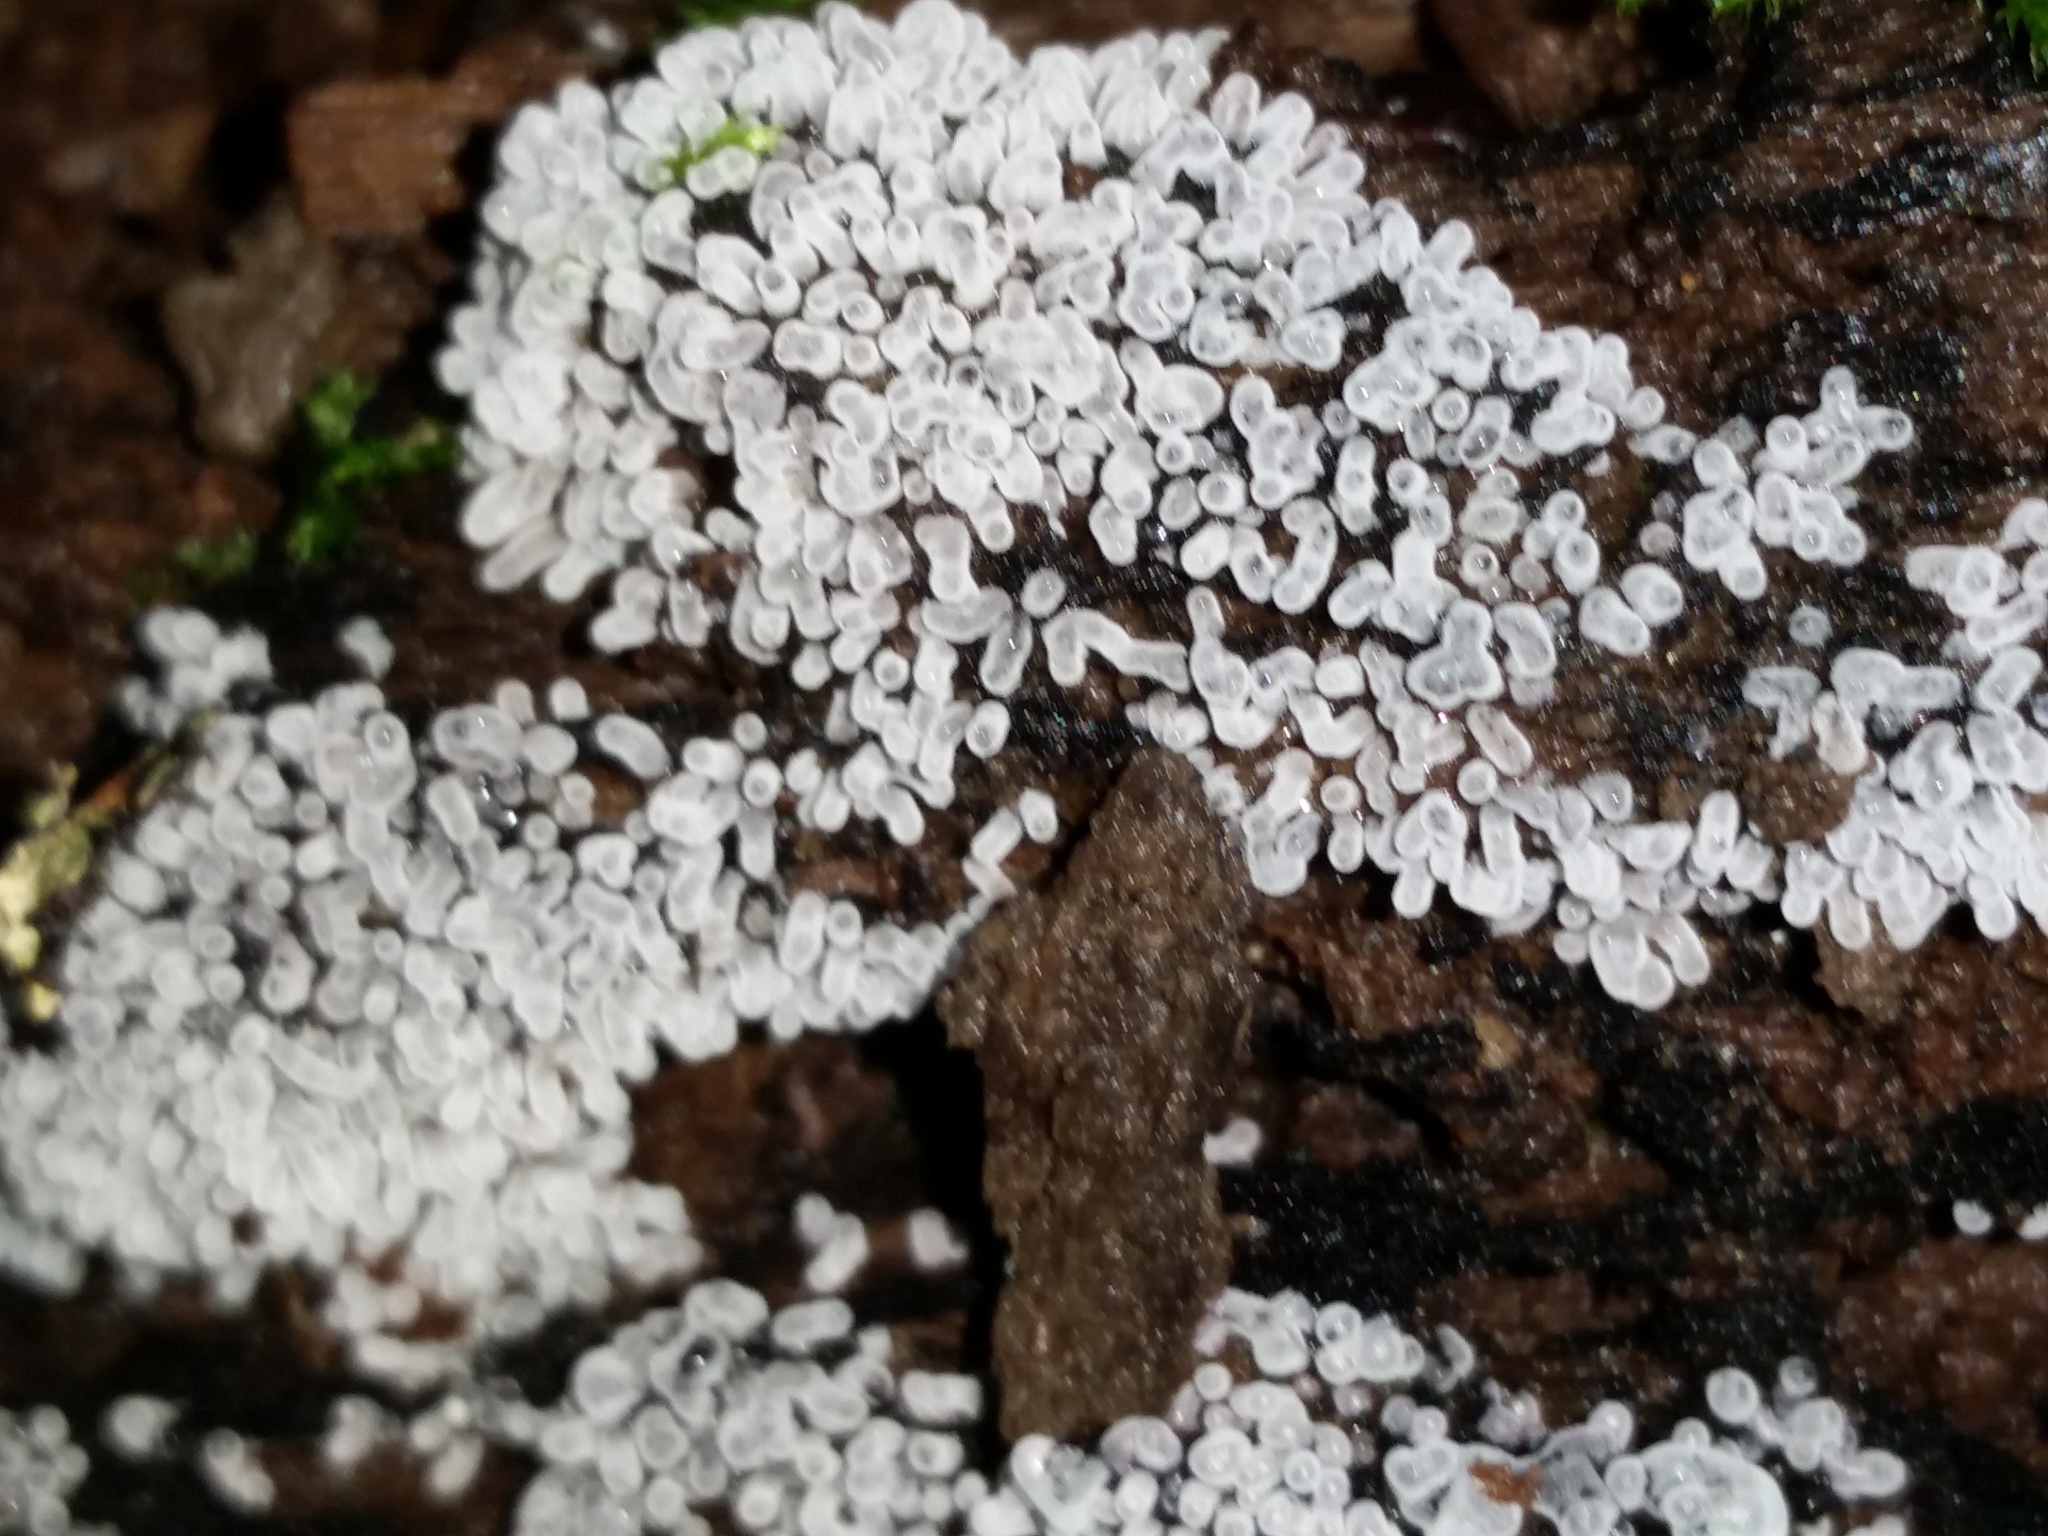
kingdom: Protozoa
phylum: Mycetozoa
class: Protosteliomycetes
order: Ceratiomyxales
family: Ceratiomyxaceae
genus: Ceratiomyxa
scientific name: Ceratiomyxa fruticulosa
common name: Honeycomb coral slime mold
